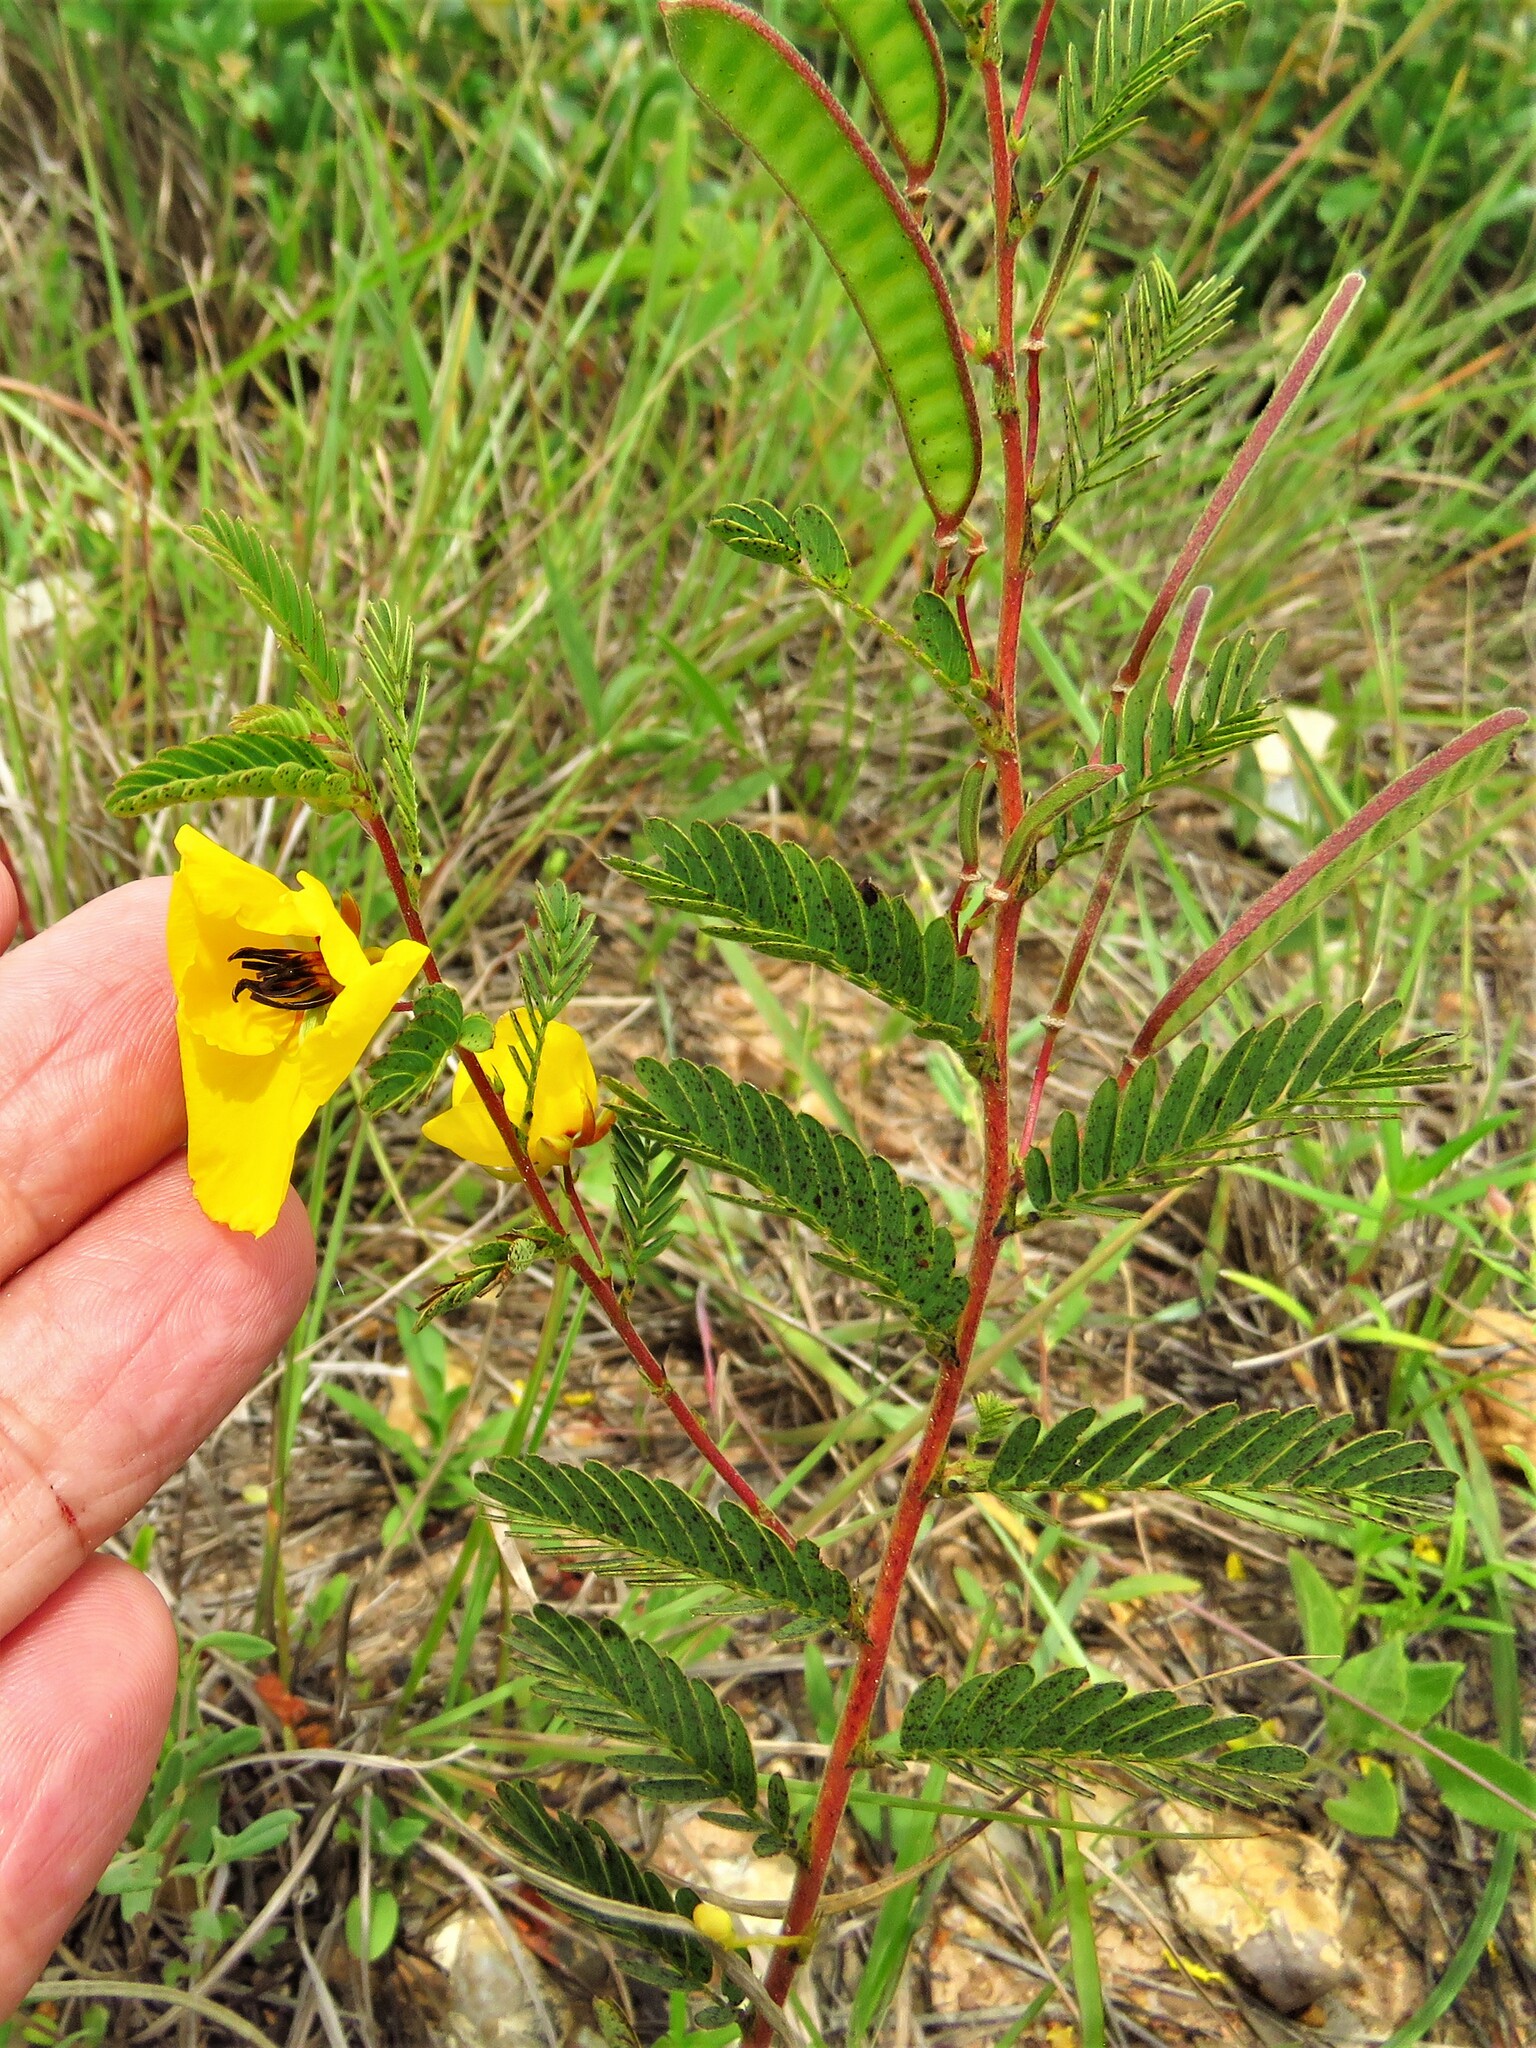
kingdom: Plantae
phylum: Tracheophyta
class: Magnoliopsida
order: Fabales
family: Fabaceae
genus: Chamaecrista
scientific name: Chamaecrista fasciculata
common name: Golden cassia
